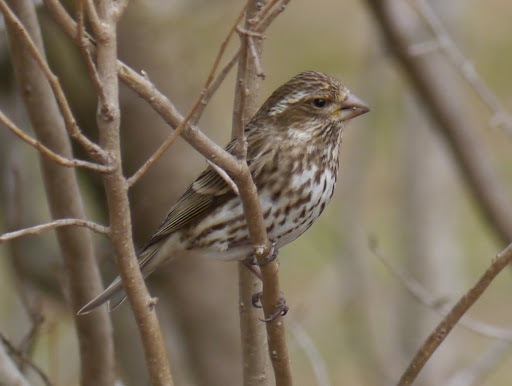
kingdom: Animalia
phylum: Chordata
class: Aves
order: Passeriformes
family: Fringillidae
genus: Haemorhous
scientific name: Haemorhous mexicanus
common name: House finch
